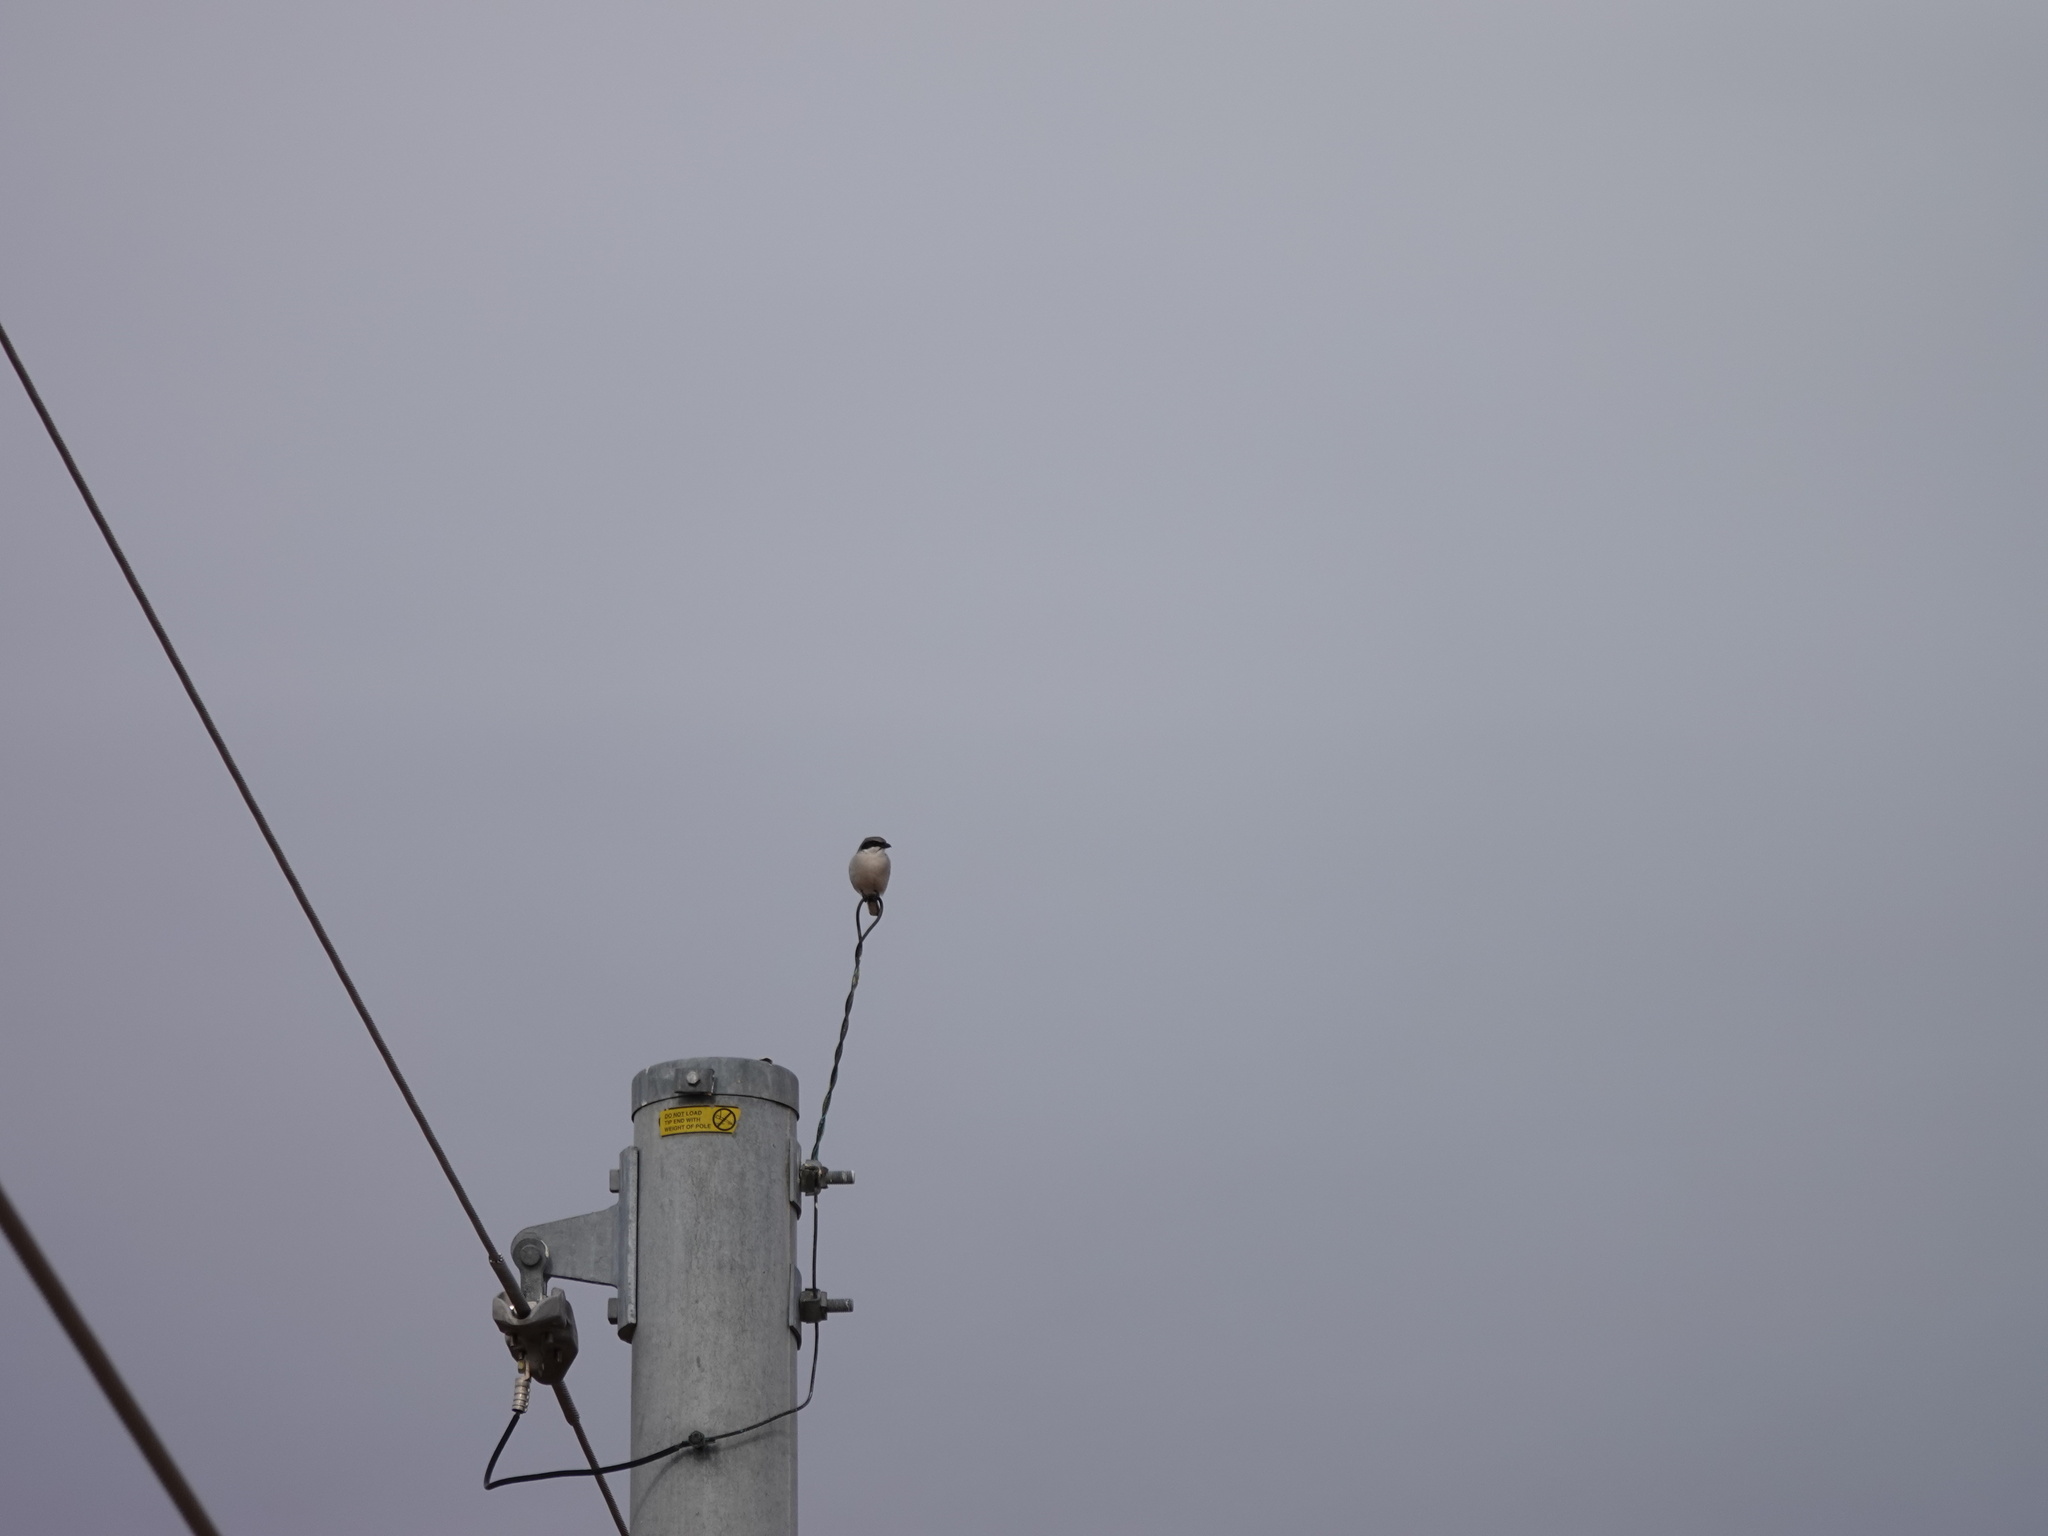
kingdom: Animalia
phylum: Chordata
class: Aves
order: Passeriformes
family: Laniidae
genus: Lanius
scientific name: Lanius ludovicianus
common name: Loggerhead shrike
